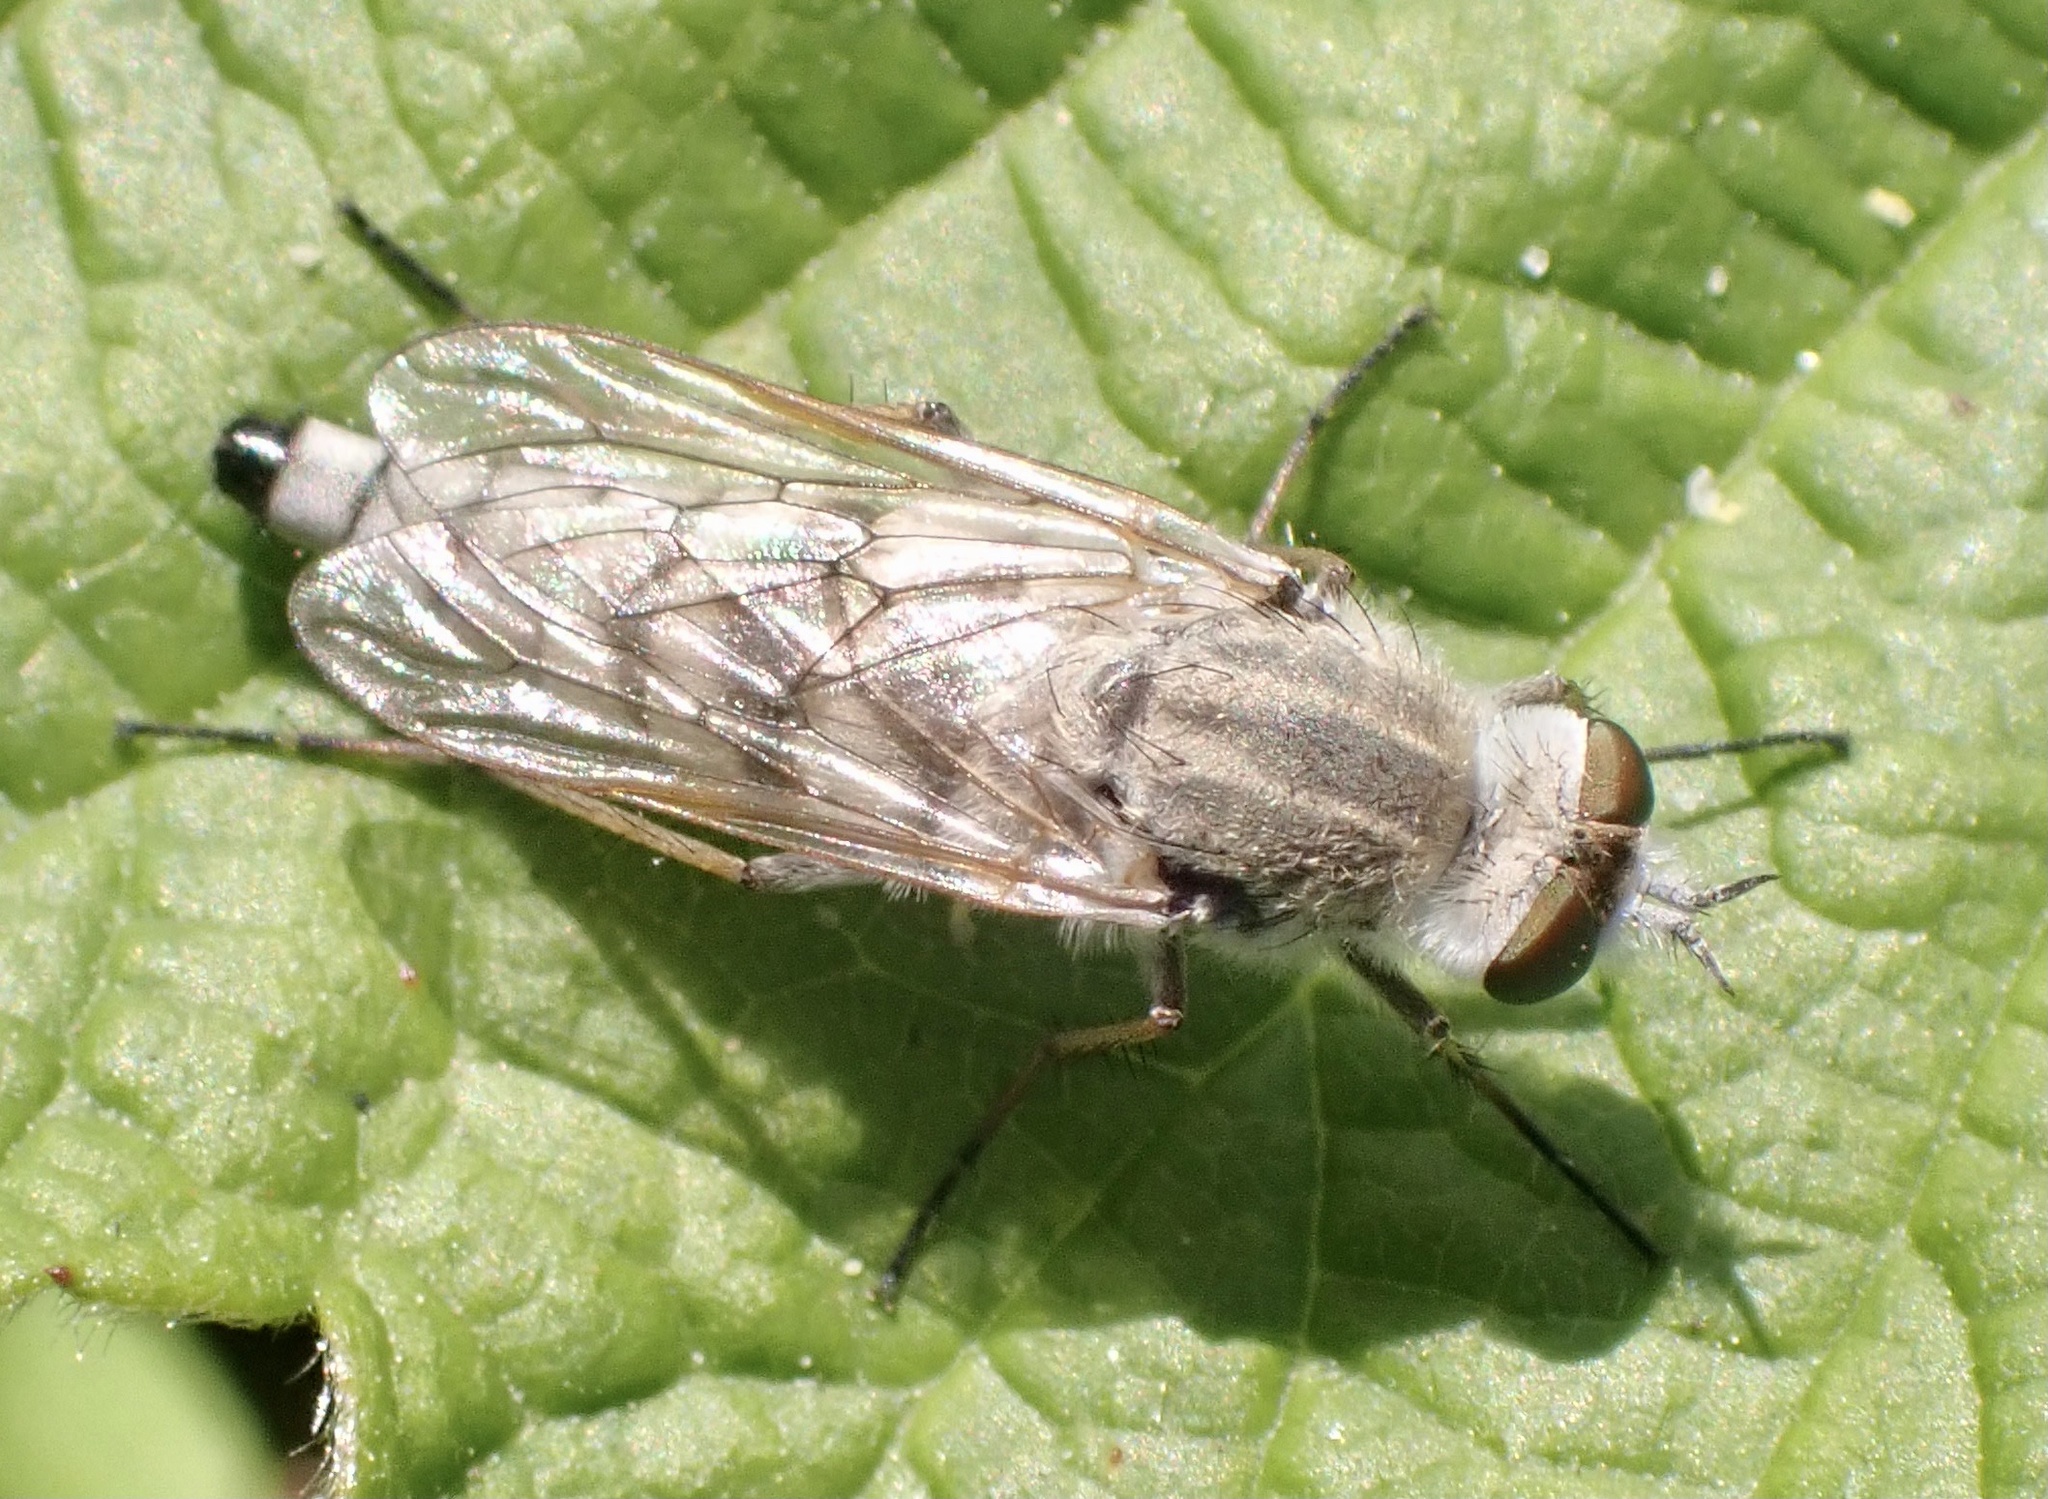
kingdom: Animalia
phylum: Arthropoda
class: Insecta
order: Diptera
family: Therevidae
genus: Acrosathe
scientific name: Acrosathe annulata
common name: Coastal silver-stiletto
